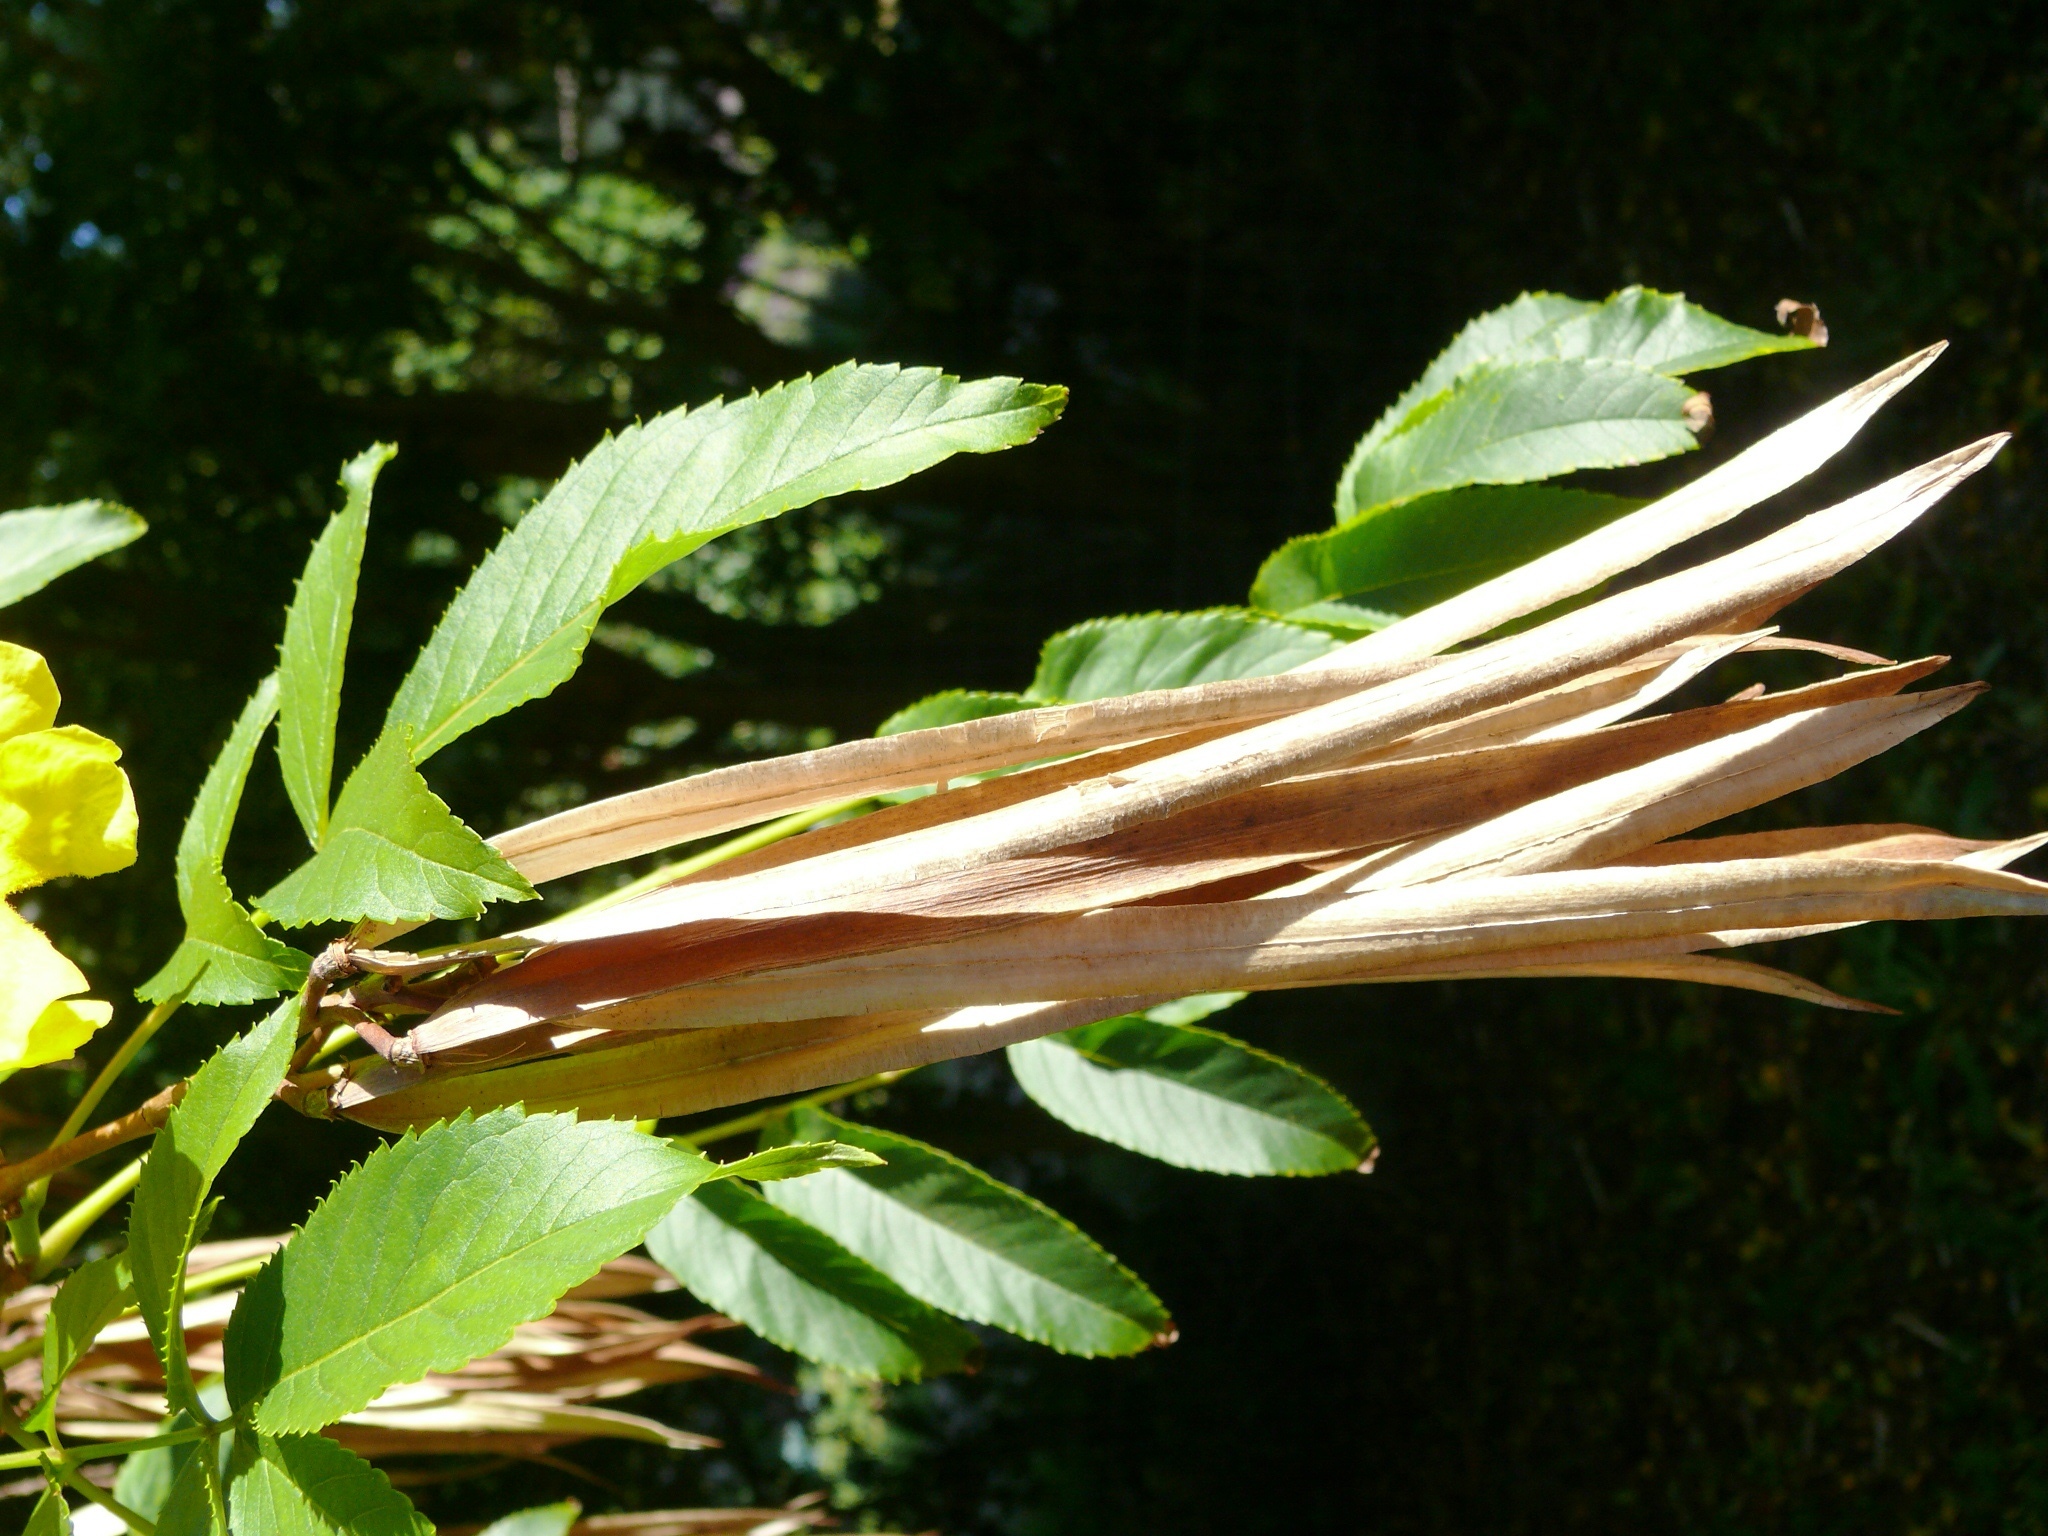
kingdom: Plantae
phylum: Tracheophyta
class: Magnoliopsida
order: Lamiales
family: Bignoniaceae
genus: Tecoma
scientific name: Tecoma stans
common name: Yellow trumpetbush
